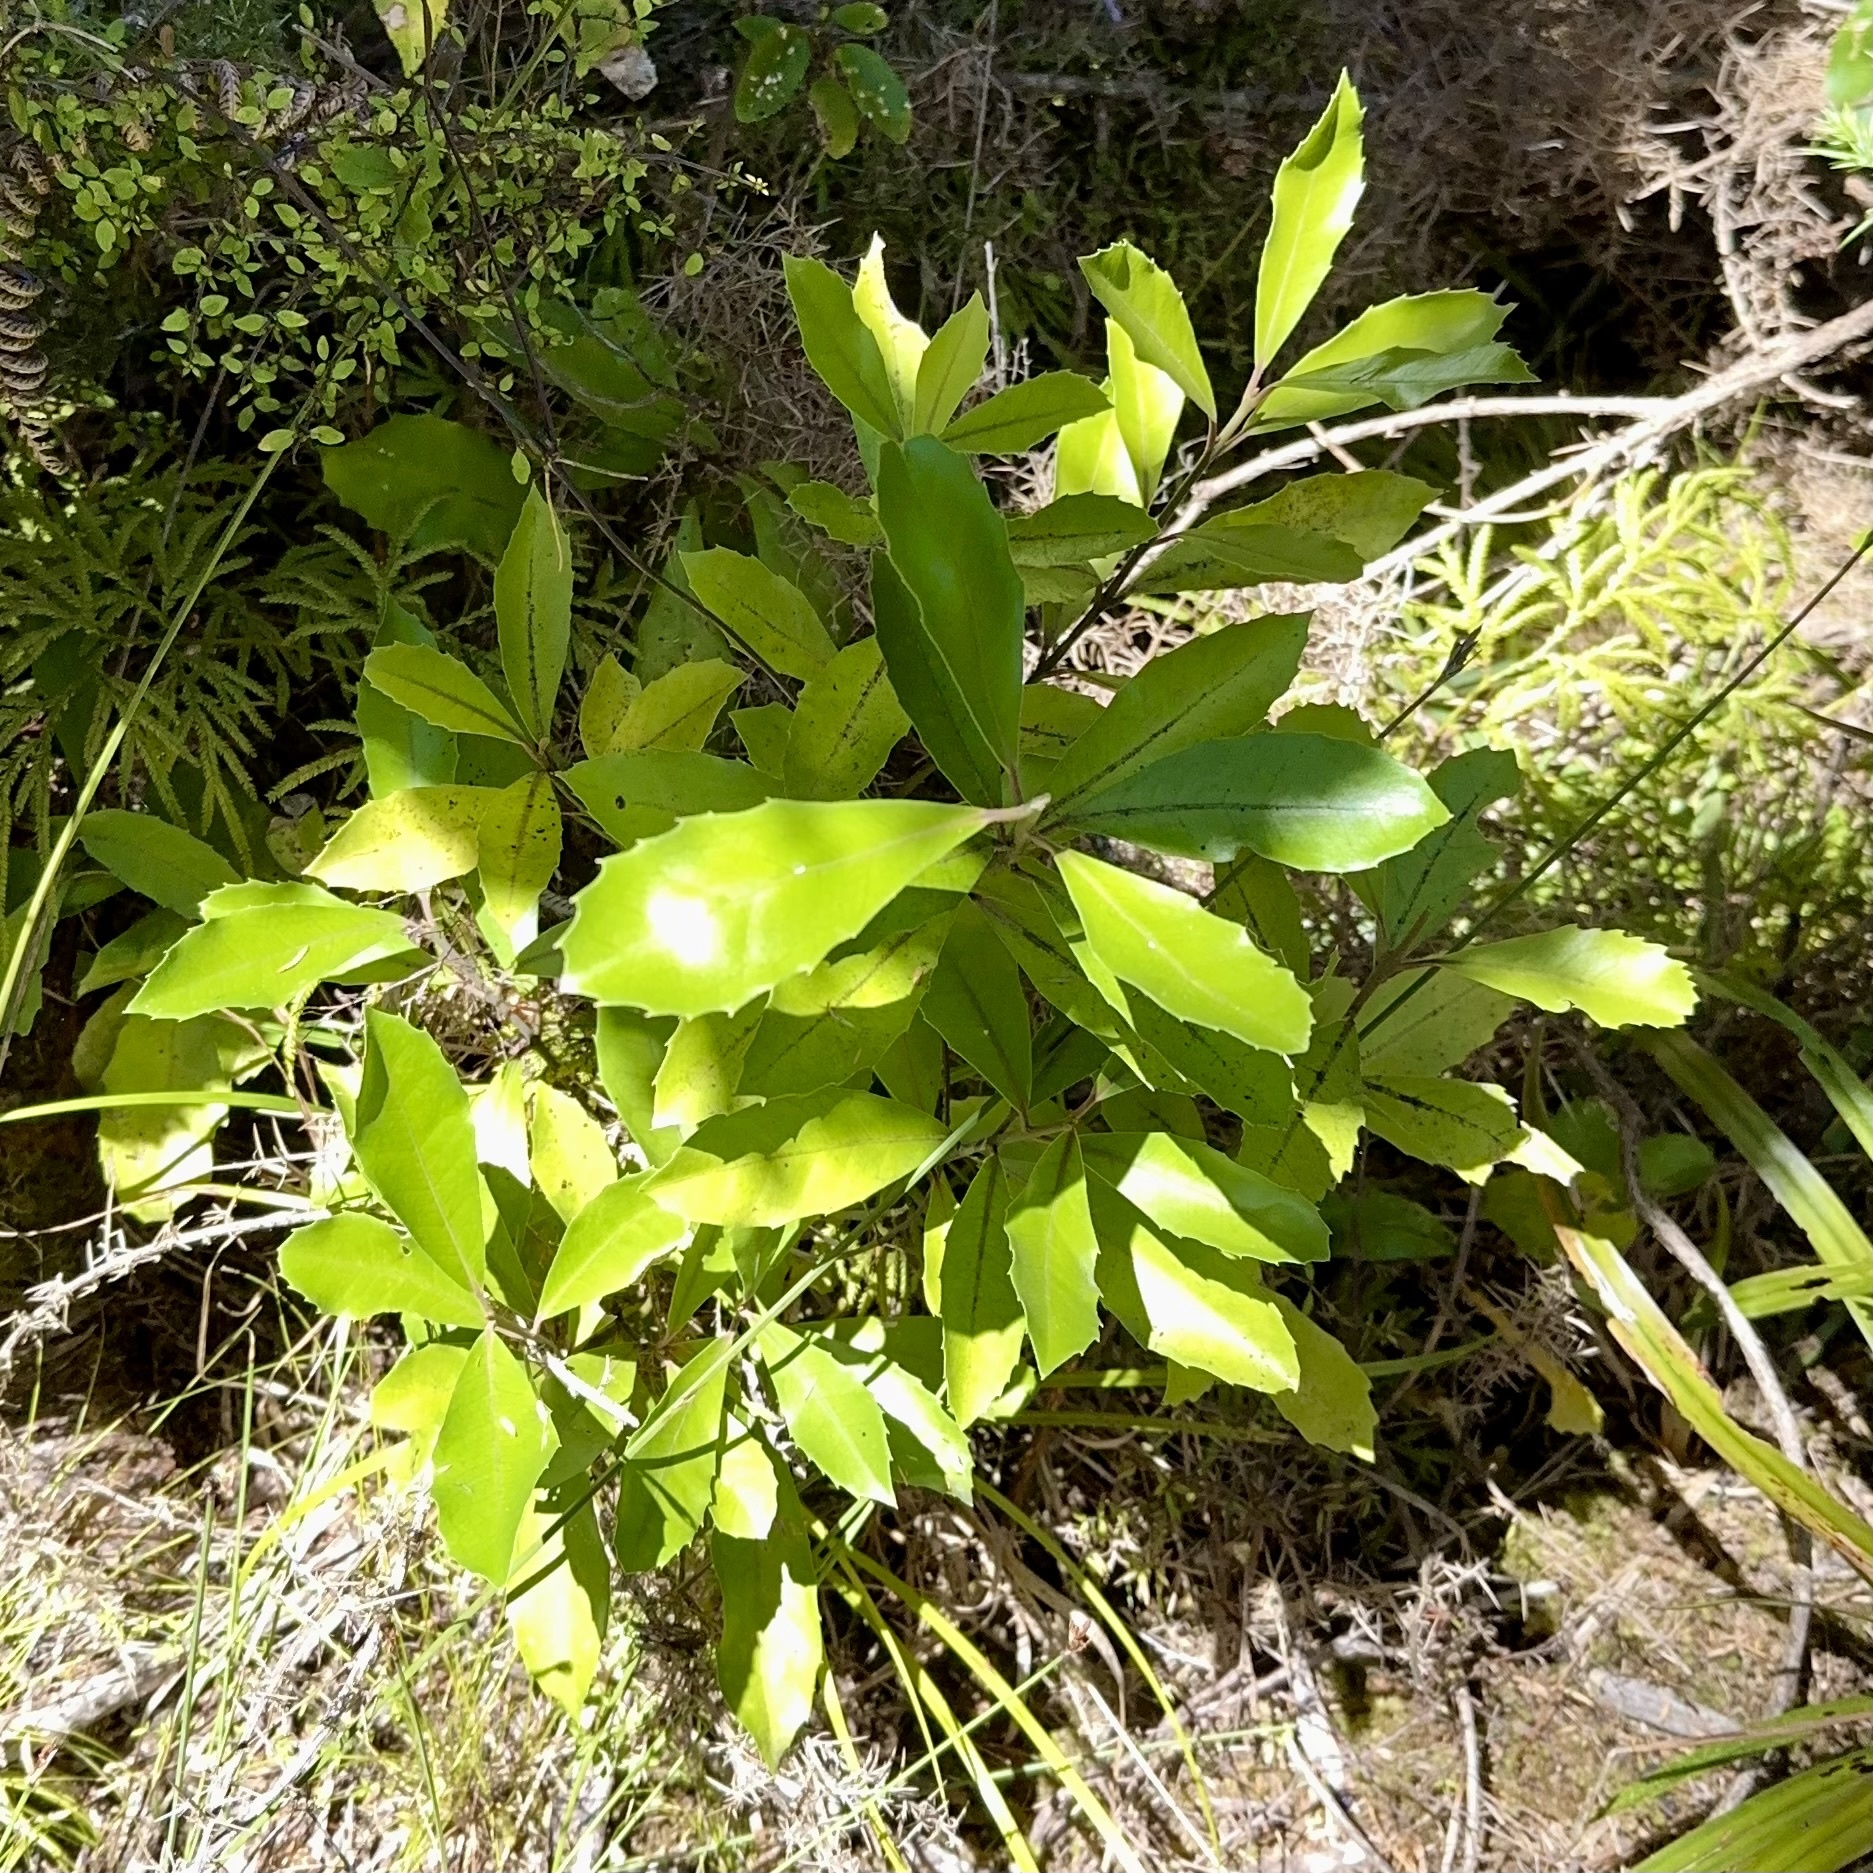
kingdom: Plantae
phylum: Tracheophyta
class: Magnoliopsida
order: Laurales
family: Monimiaceae
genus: Hedycarya
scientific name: Hedycarya arborea
